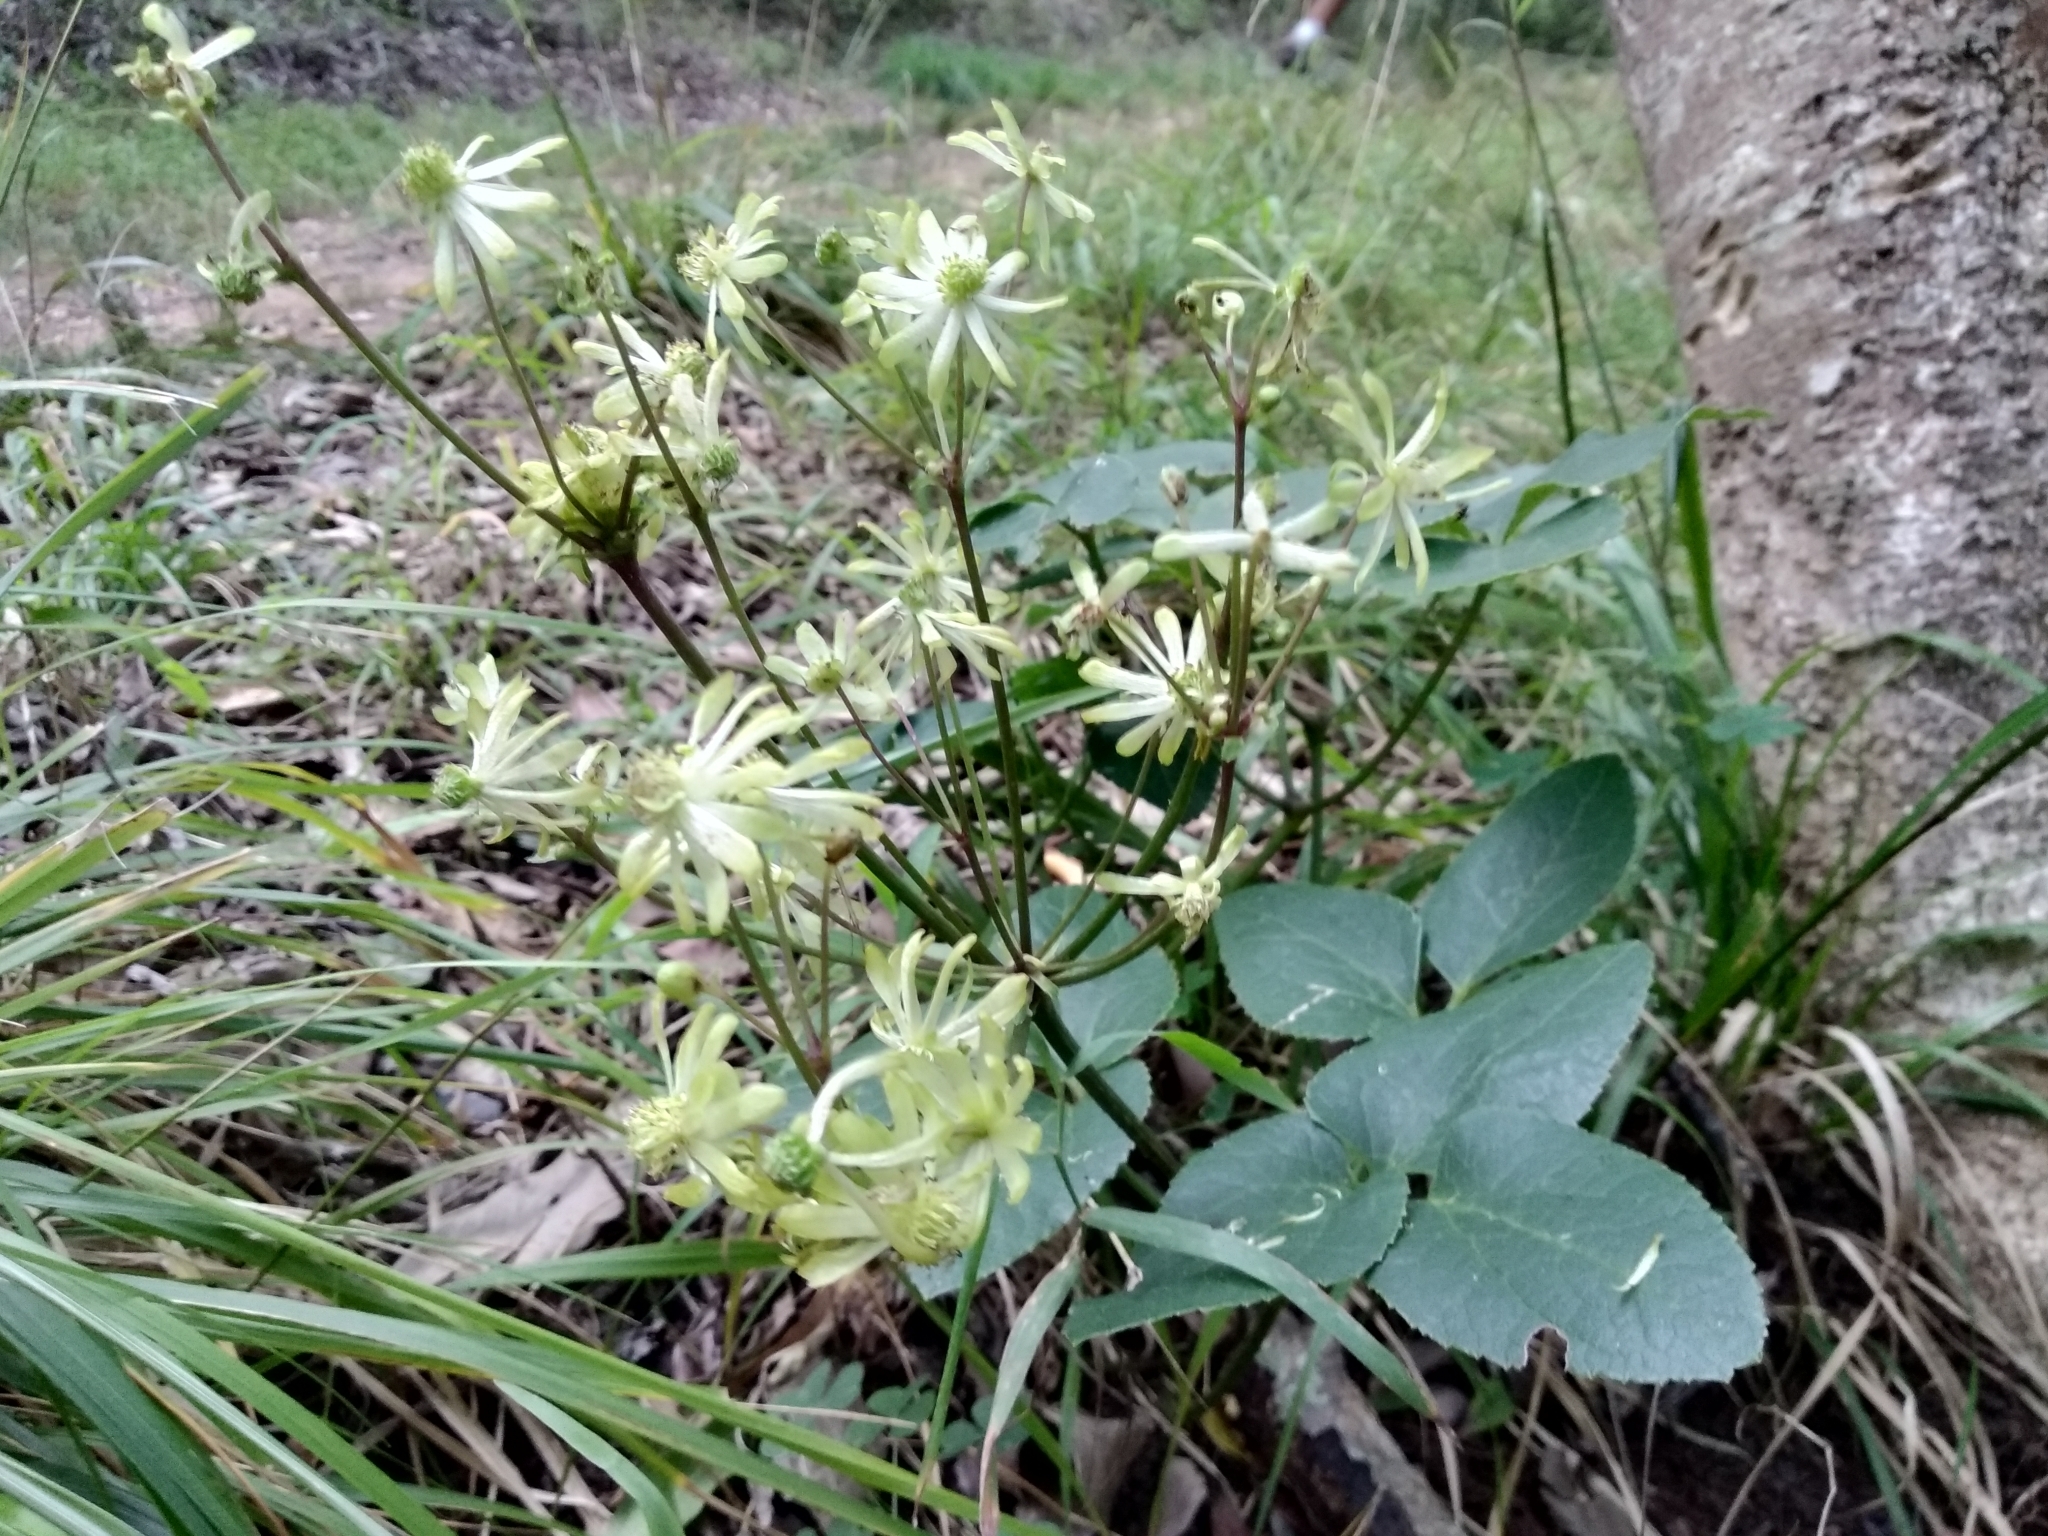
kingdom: Plantae
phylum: Tracheophyta
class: Magnoliopsida
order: Ranunculales
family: Ranunculaceae
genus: Knowltonia
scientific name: Knowltonia vesicatoria
